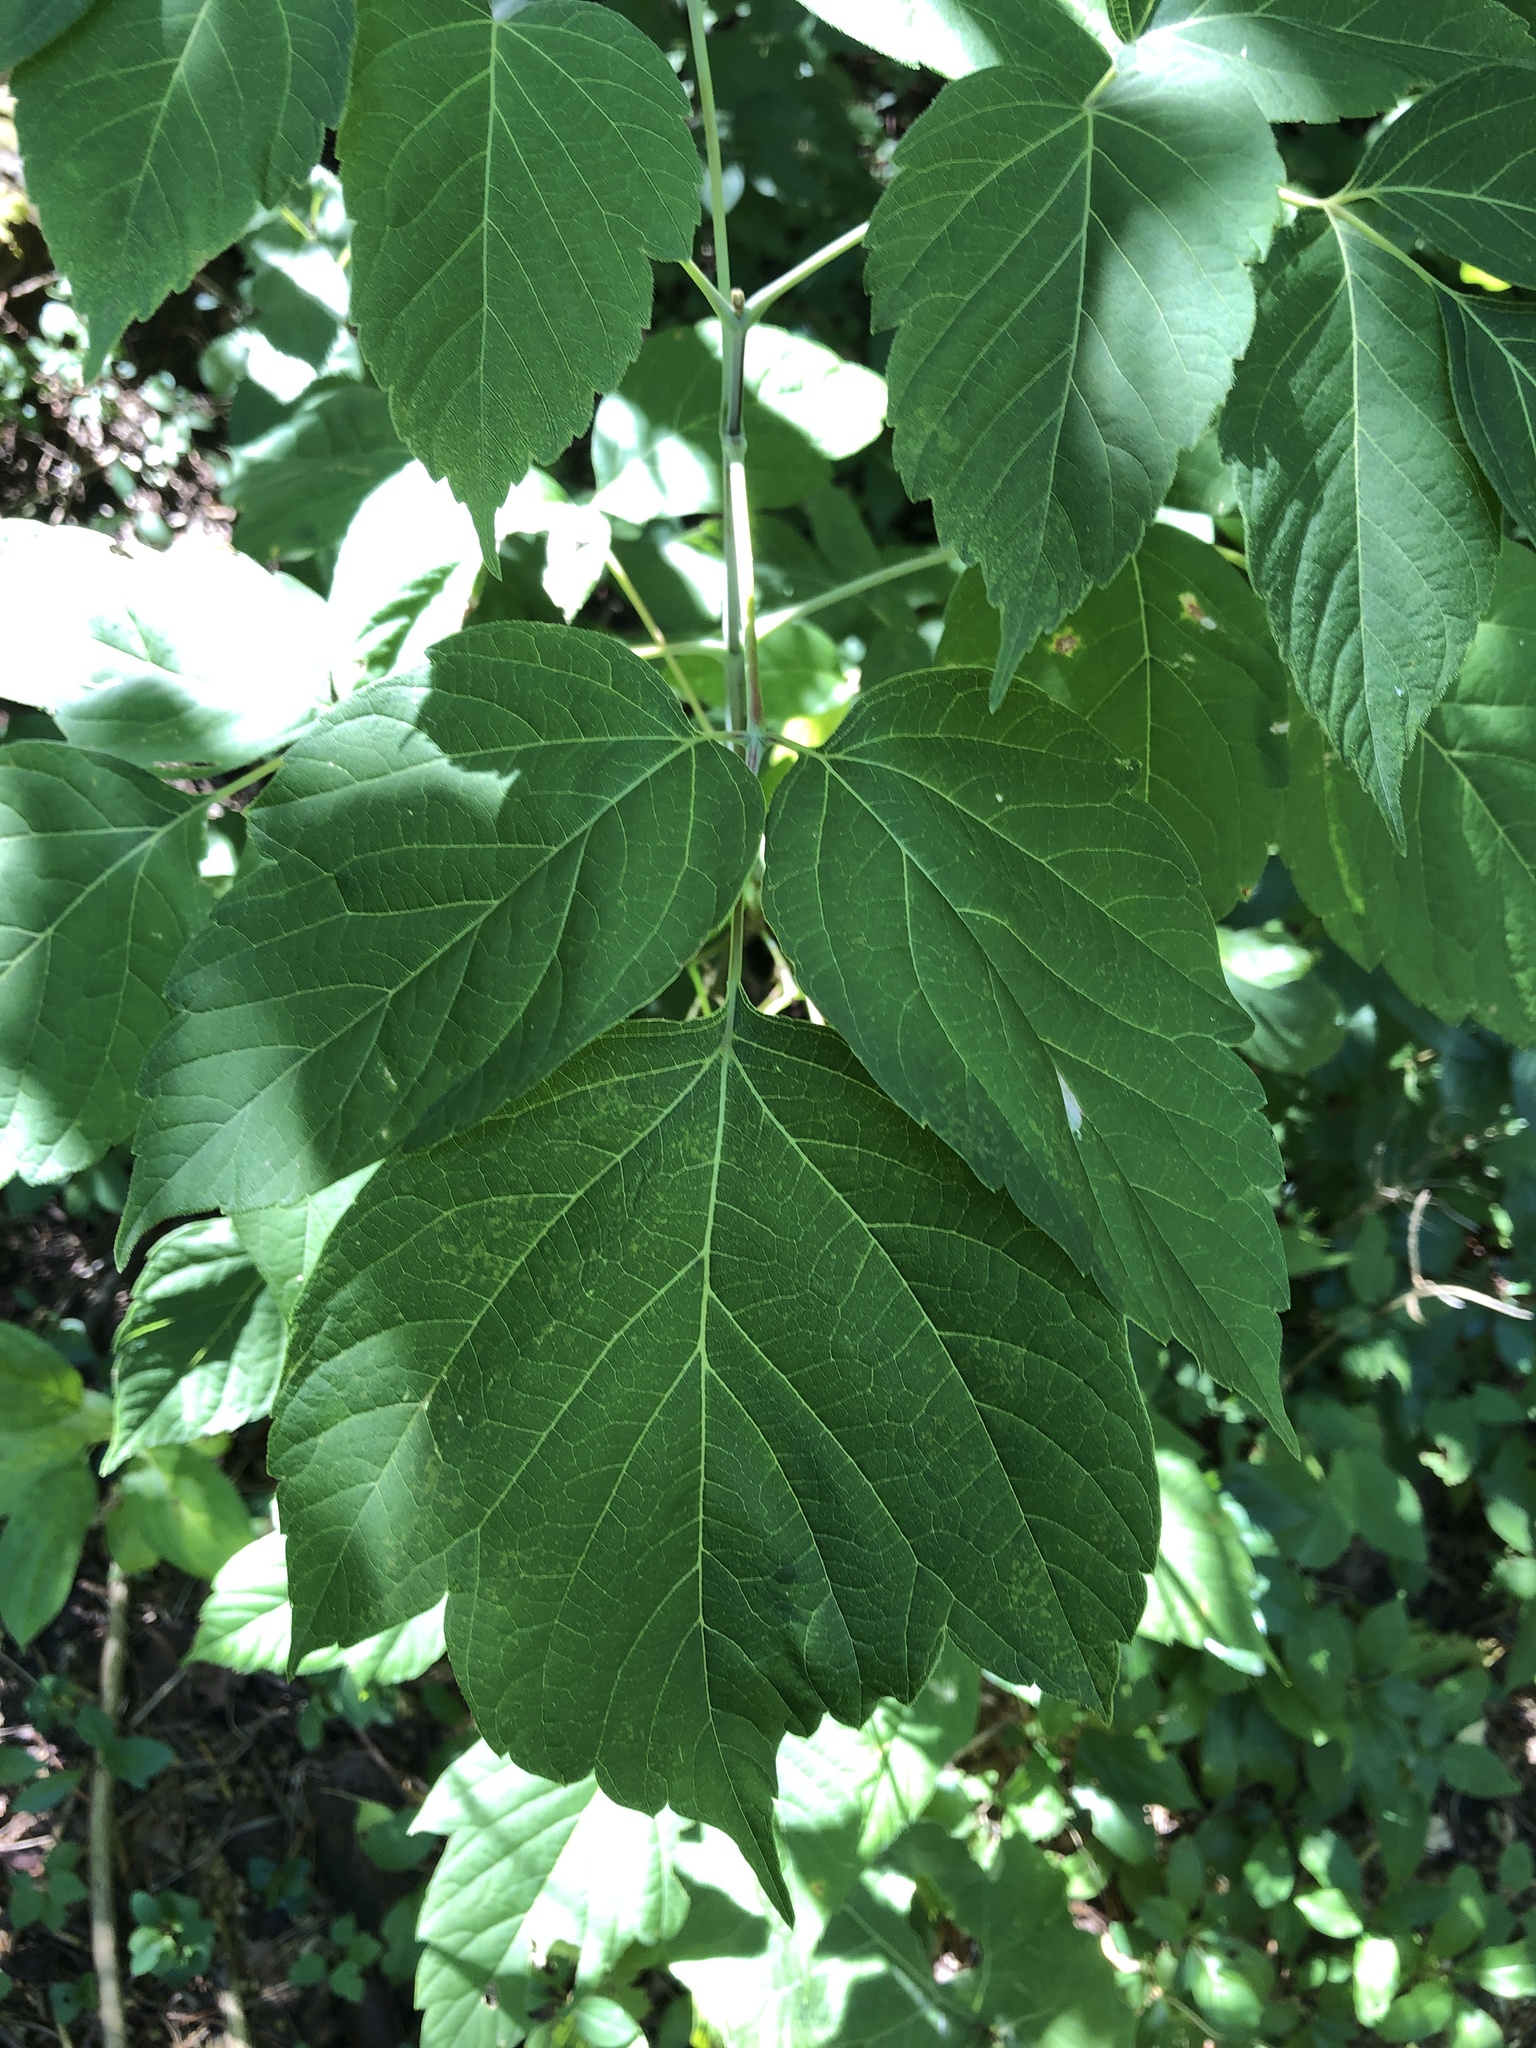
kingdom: Plantae
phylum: Tracheophyta
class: Magnoliopsida
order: Sapindales
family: Sapindaceae
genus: Acer
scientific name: Acer negundo
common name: Ashleaf maple
